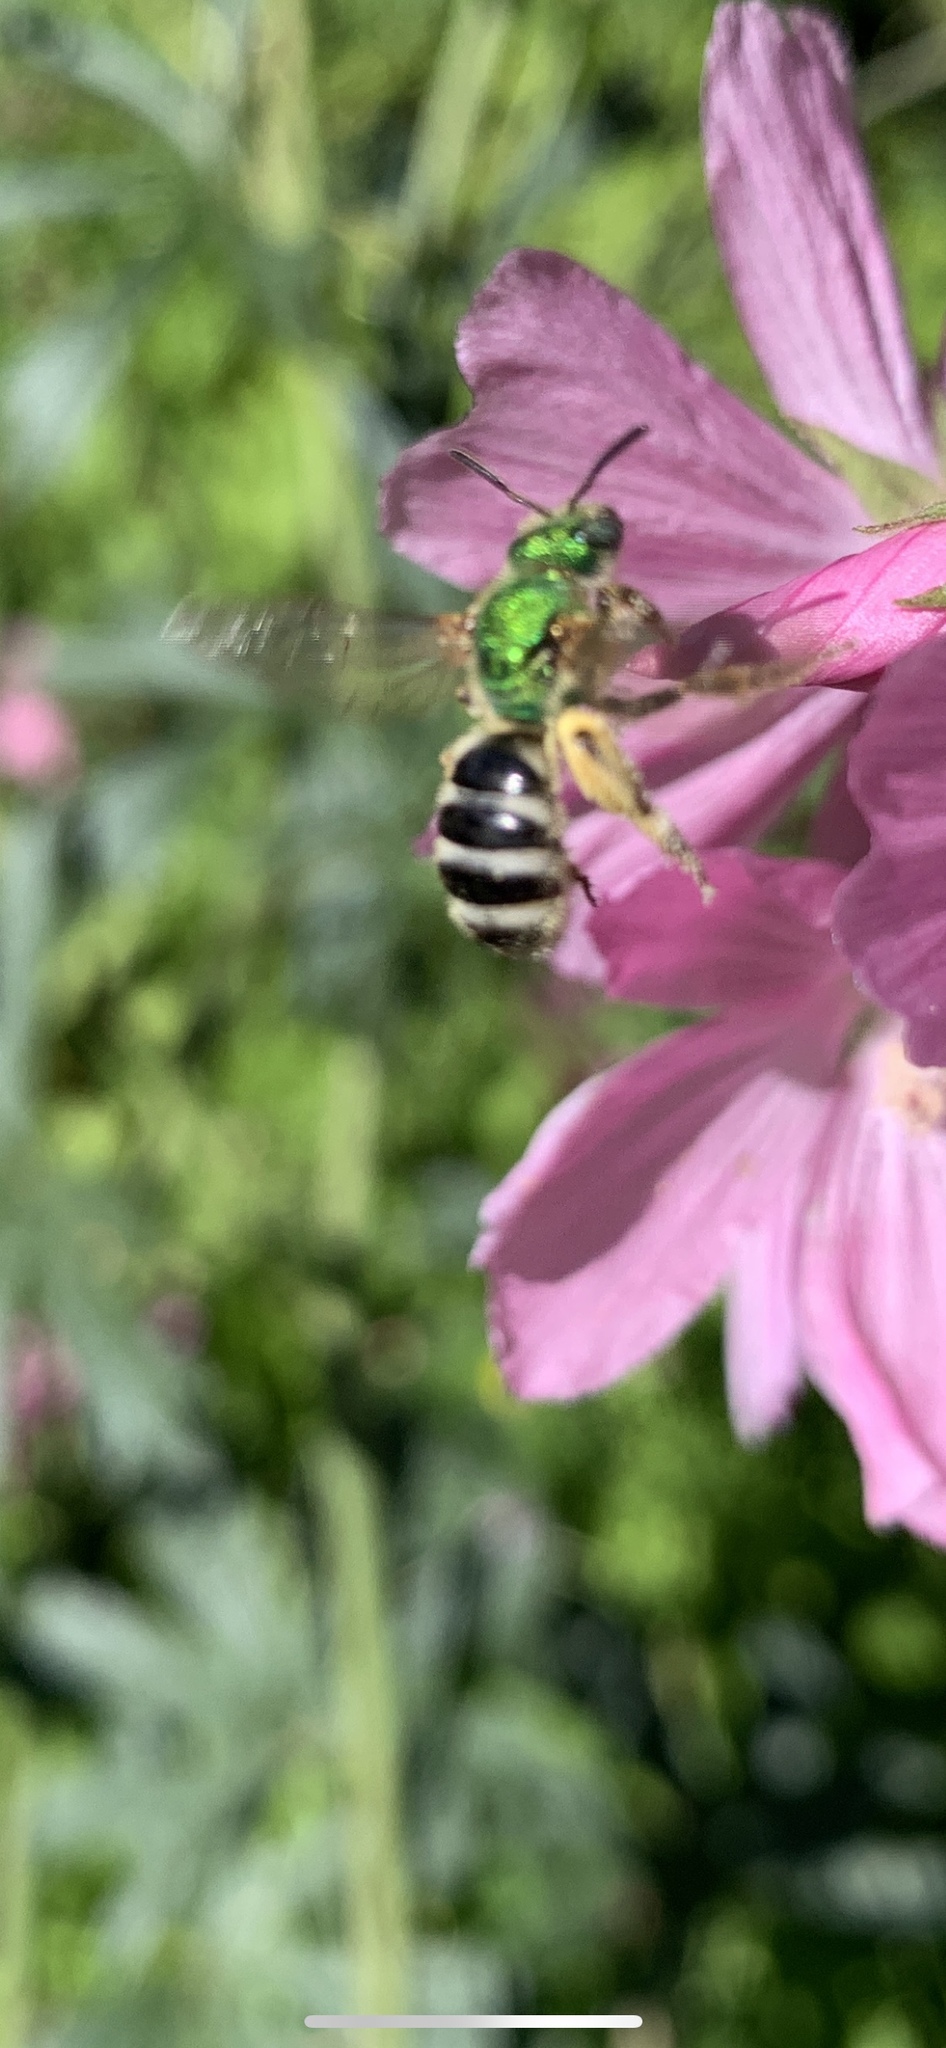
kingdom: Animalia
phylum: Arthropoda
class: Insecta
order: Hymenoptera
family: Halictidae
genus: Agapostemon
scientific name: Agapostemon virescens
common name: Bicolored striped sweat bee
